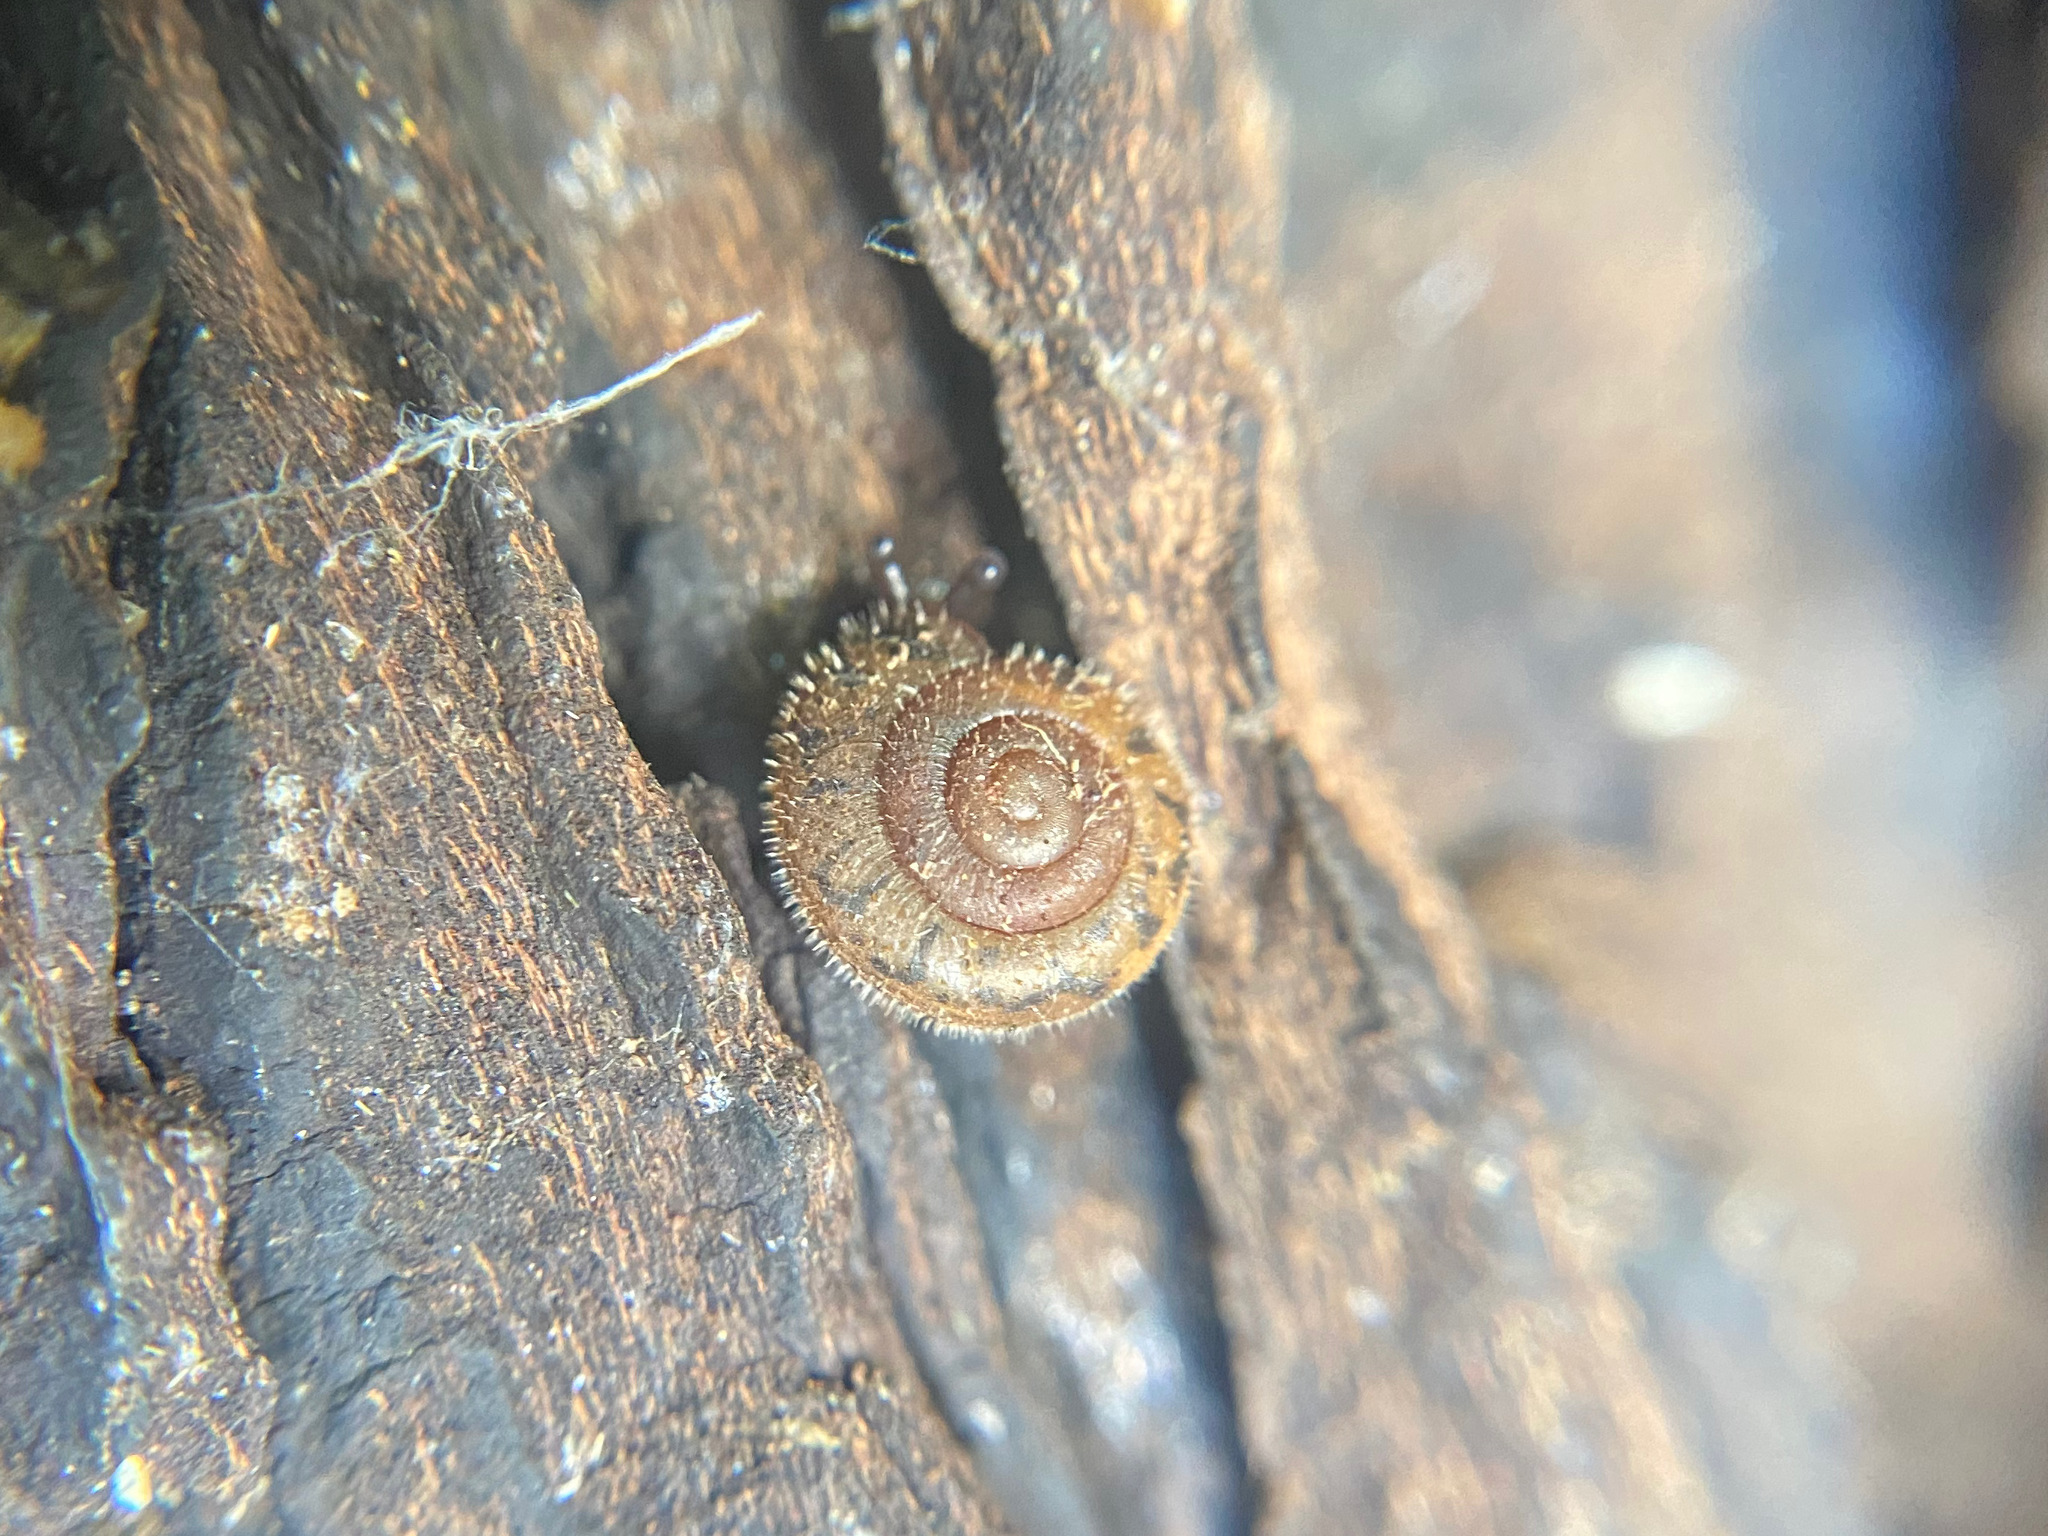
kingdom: Animalia
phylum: Mollusca
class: Gastropoda
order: Stylommatophora
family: Polygyridae
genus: Vespericola
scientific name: Vespericola columbianus
